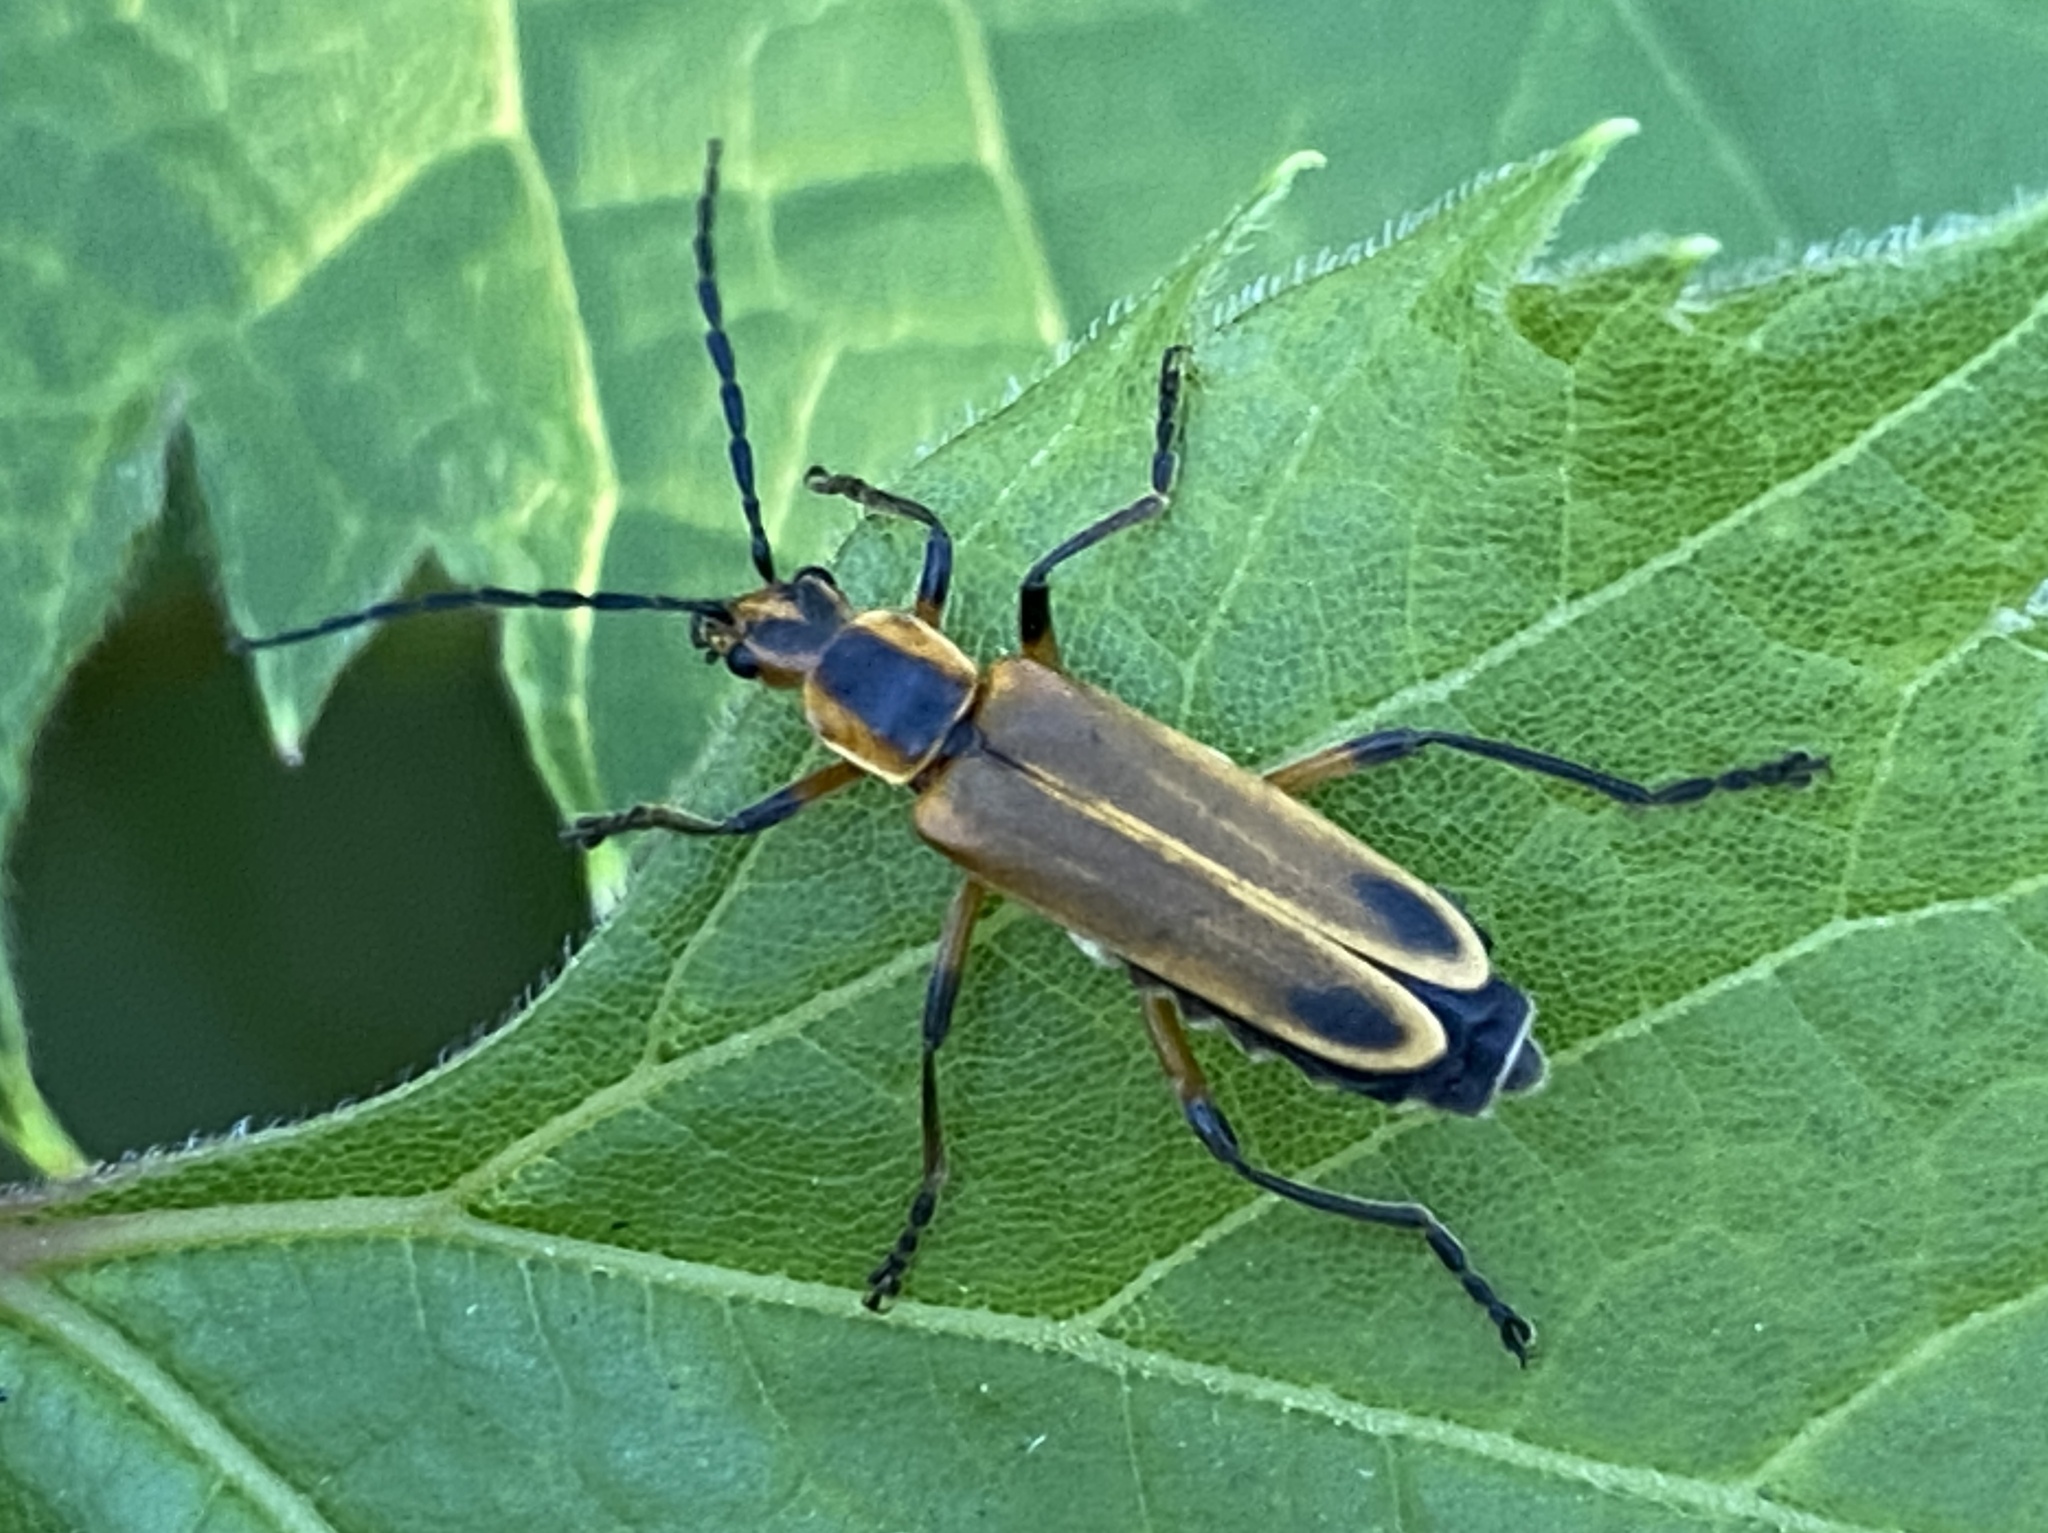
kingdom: Animalia
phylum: Arthropoda
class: Insecta
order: Coleoptera
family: Cantharidae
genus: Chauliognathus
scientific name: Chauliognathus marginatus
